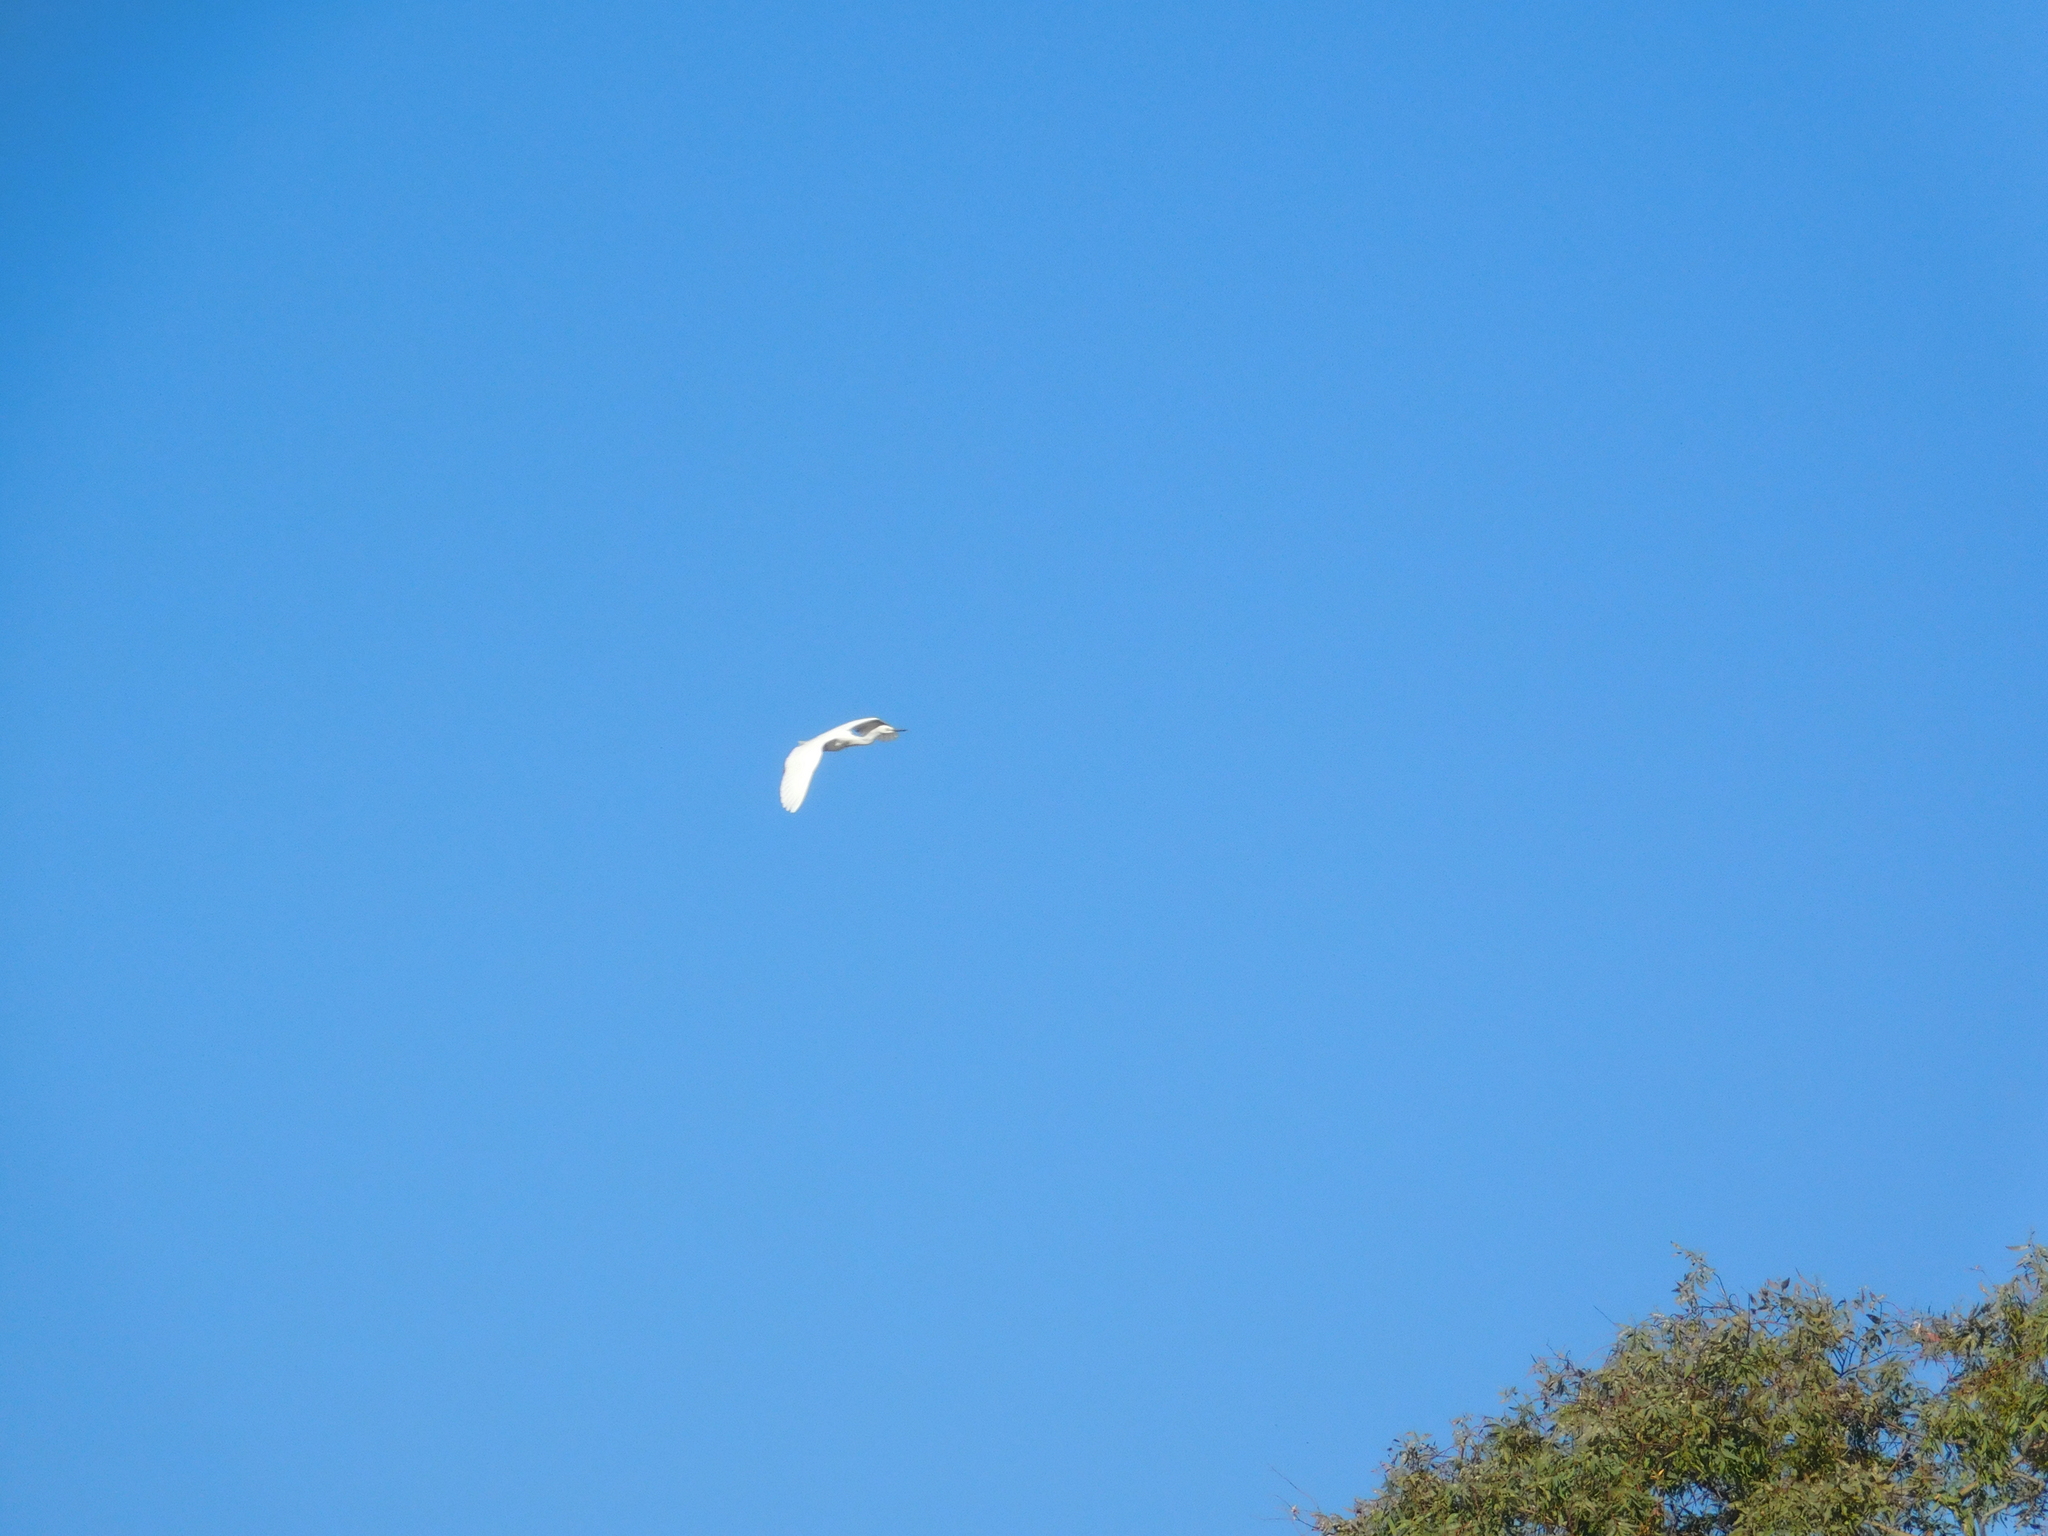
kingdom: Animalia
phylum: Chordata
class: Aves
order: Pelecaniformes
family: Ardeidae
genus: Egretta
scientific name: Egretta thula
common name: Snowy egret
